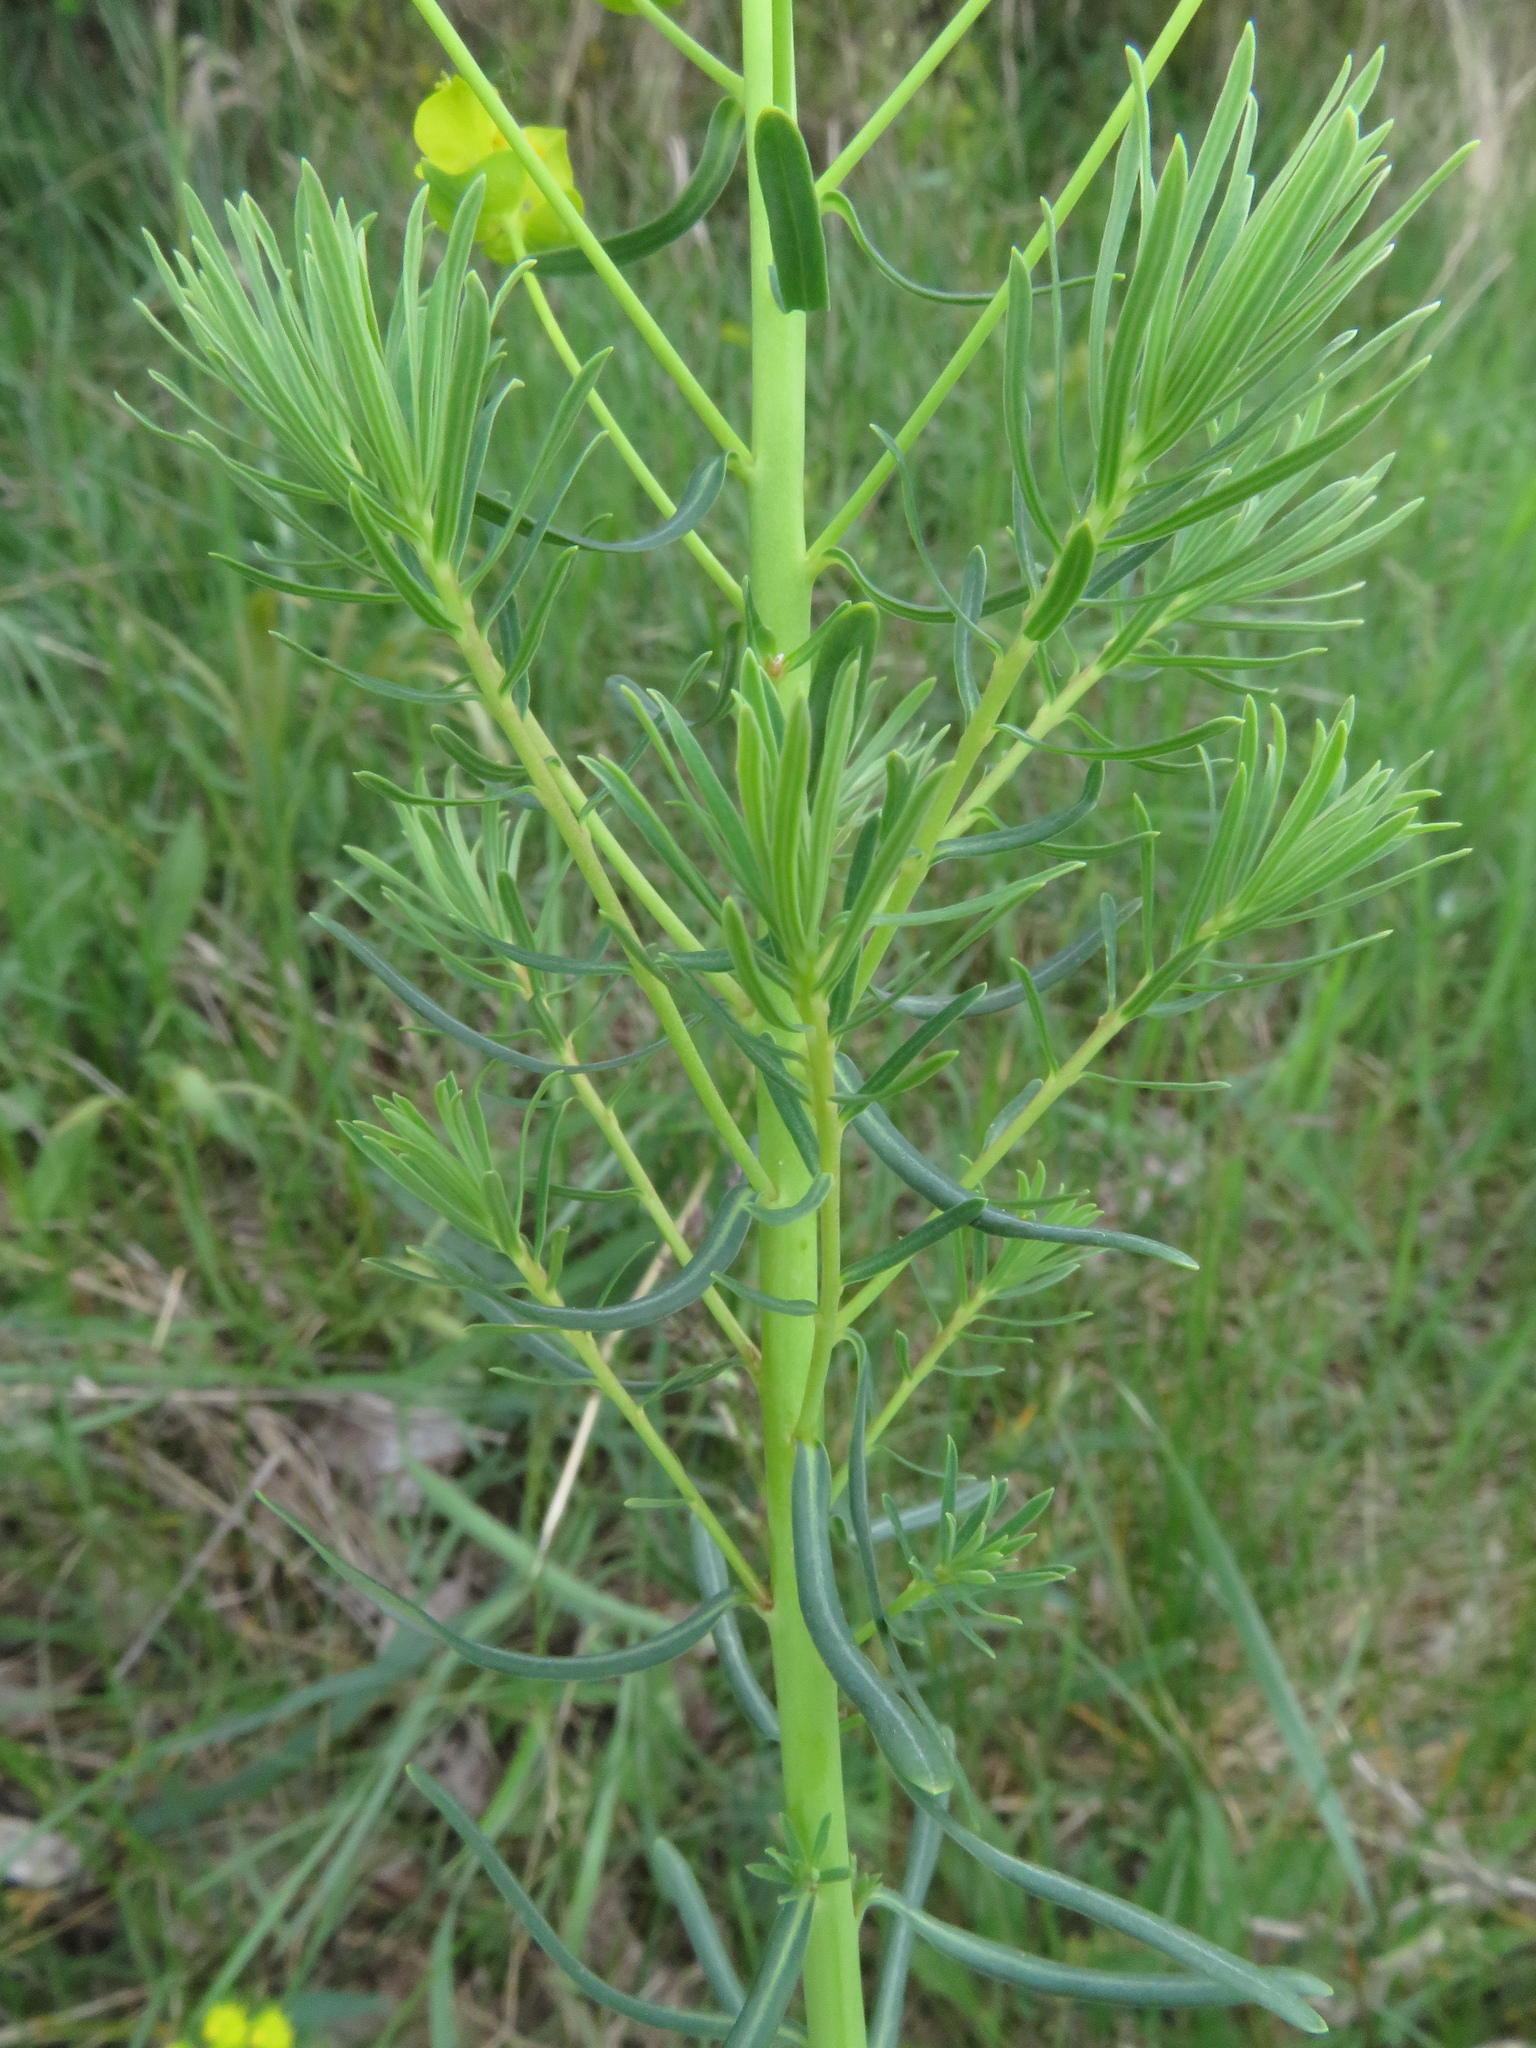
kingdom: Plantae
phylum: Tracheophyta
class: Magnoliopsida
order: Malpighiales
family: Euphorbiaceae
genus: Euphorbia
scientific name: Euphorbia cyparissias
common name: Cypress spurge
